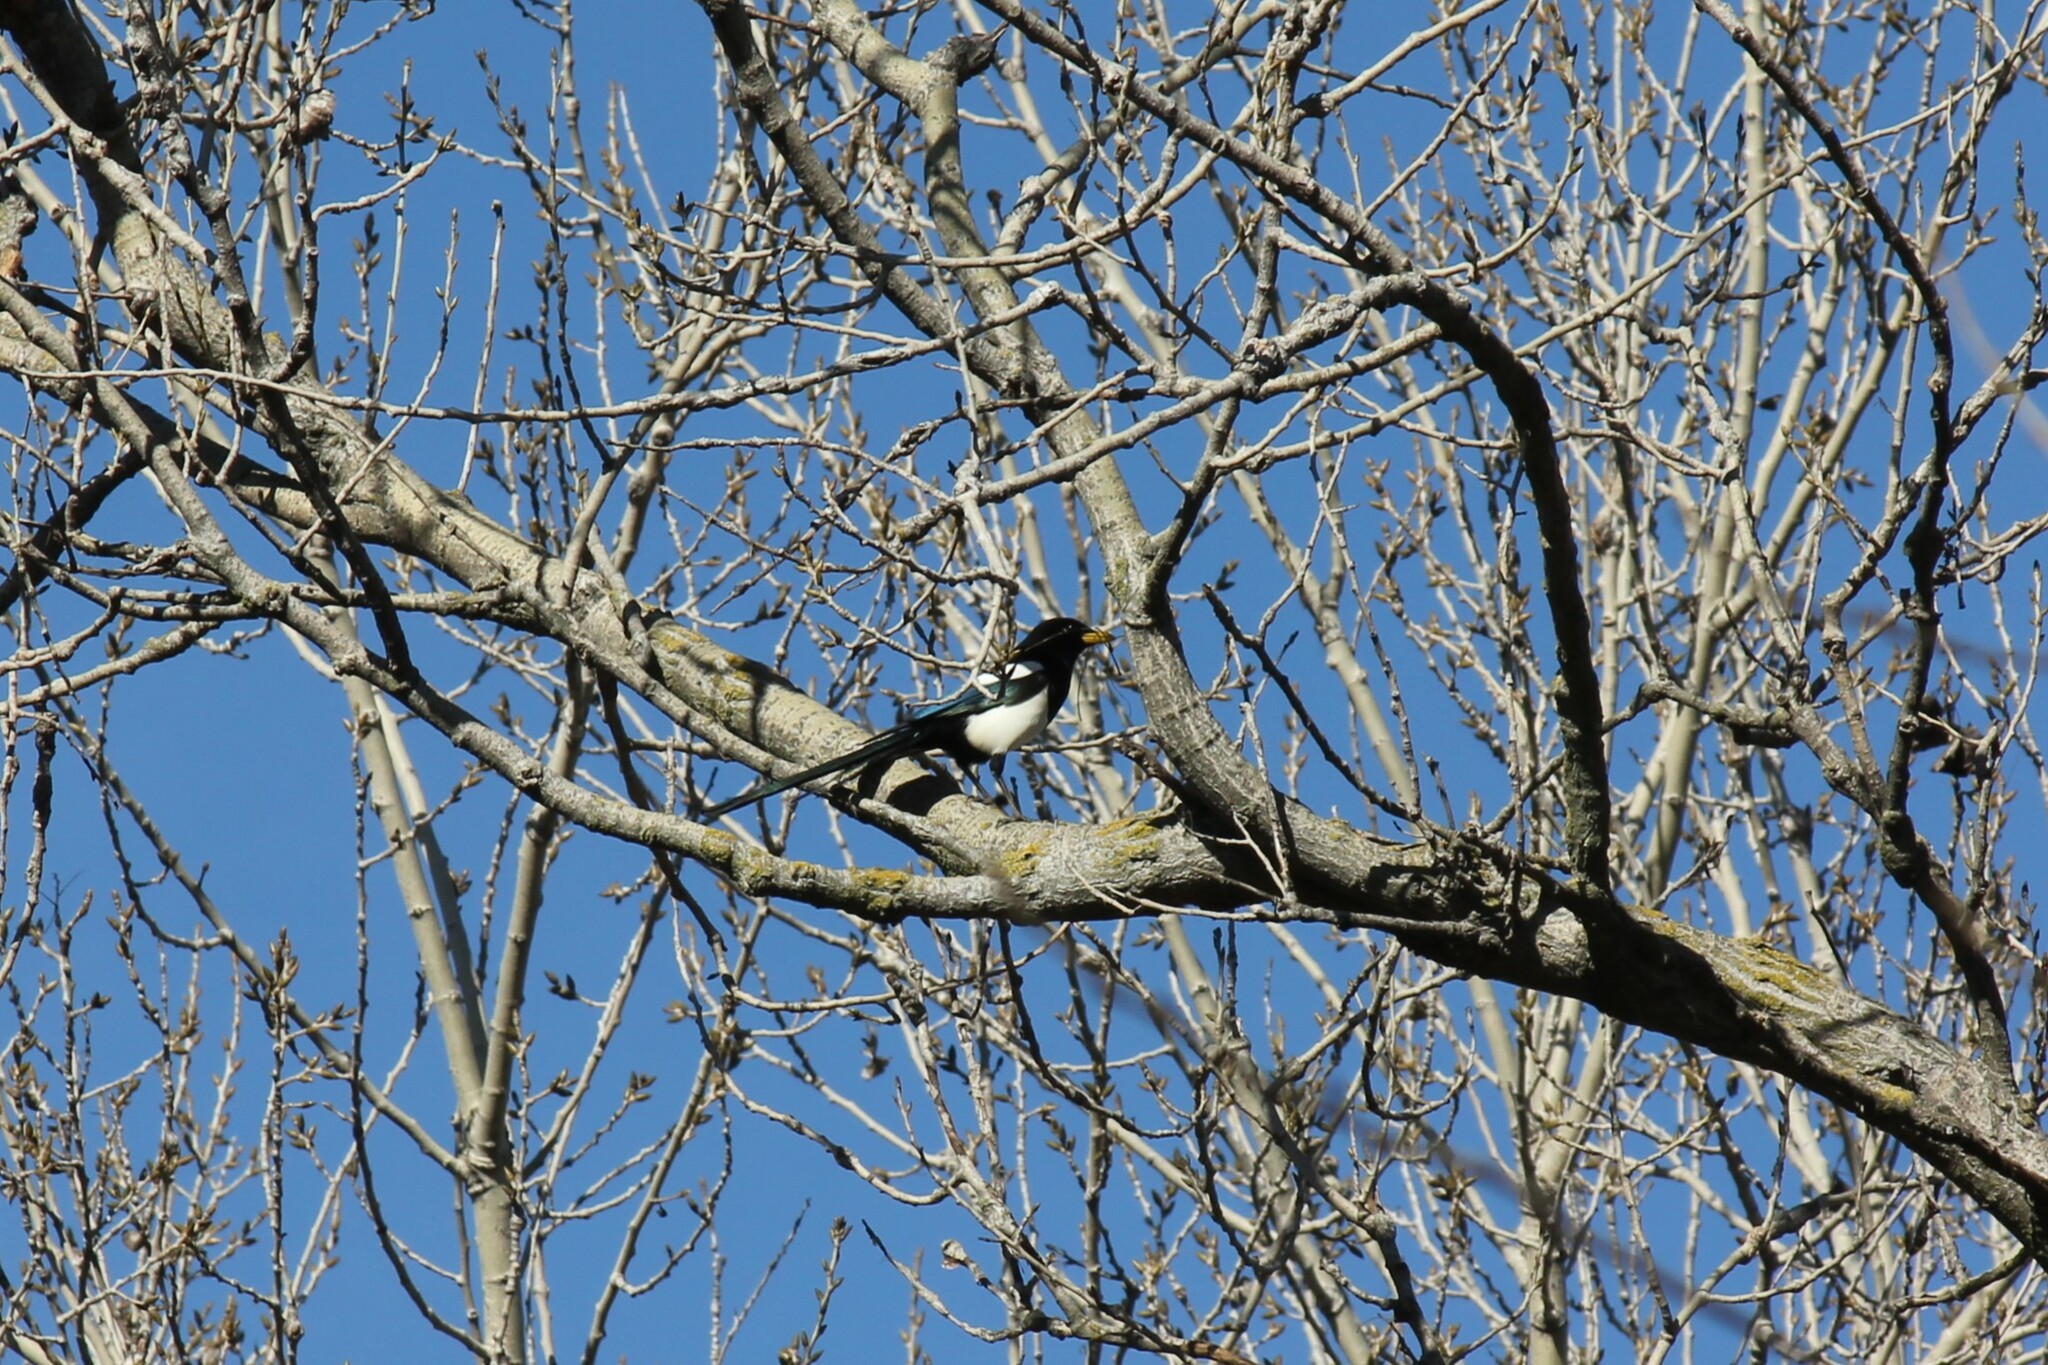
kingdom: Animalia
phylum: Chordata
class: Aves
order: Passeriformes
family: Corvidae
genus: Pica
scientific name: Pica nuttalli
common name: Yellow-billed magpie
